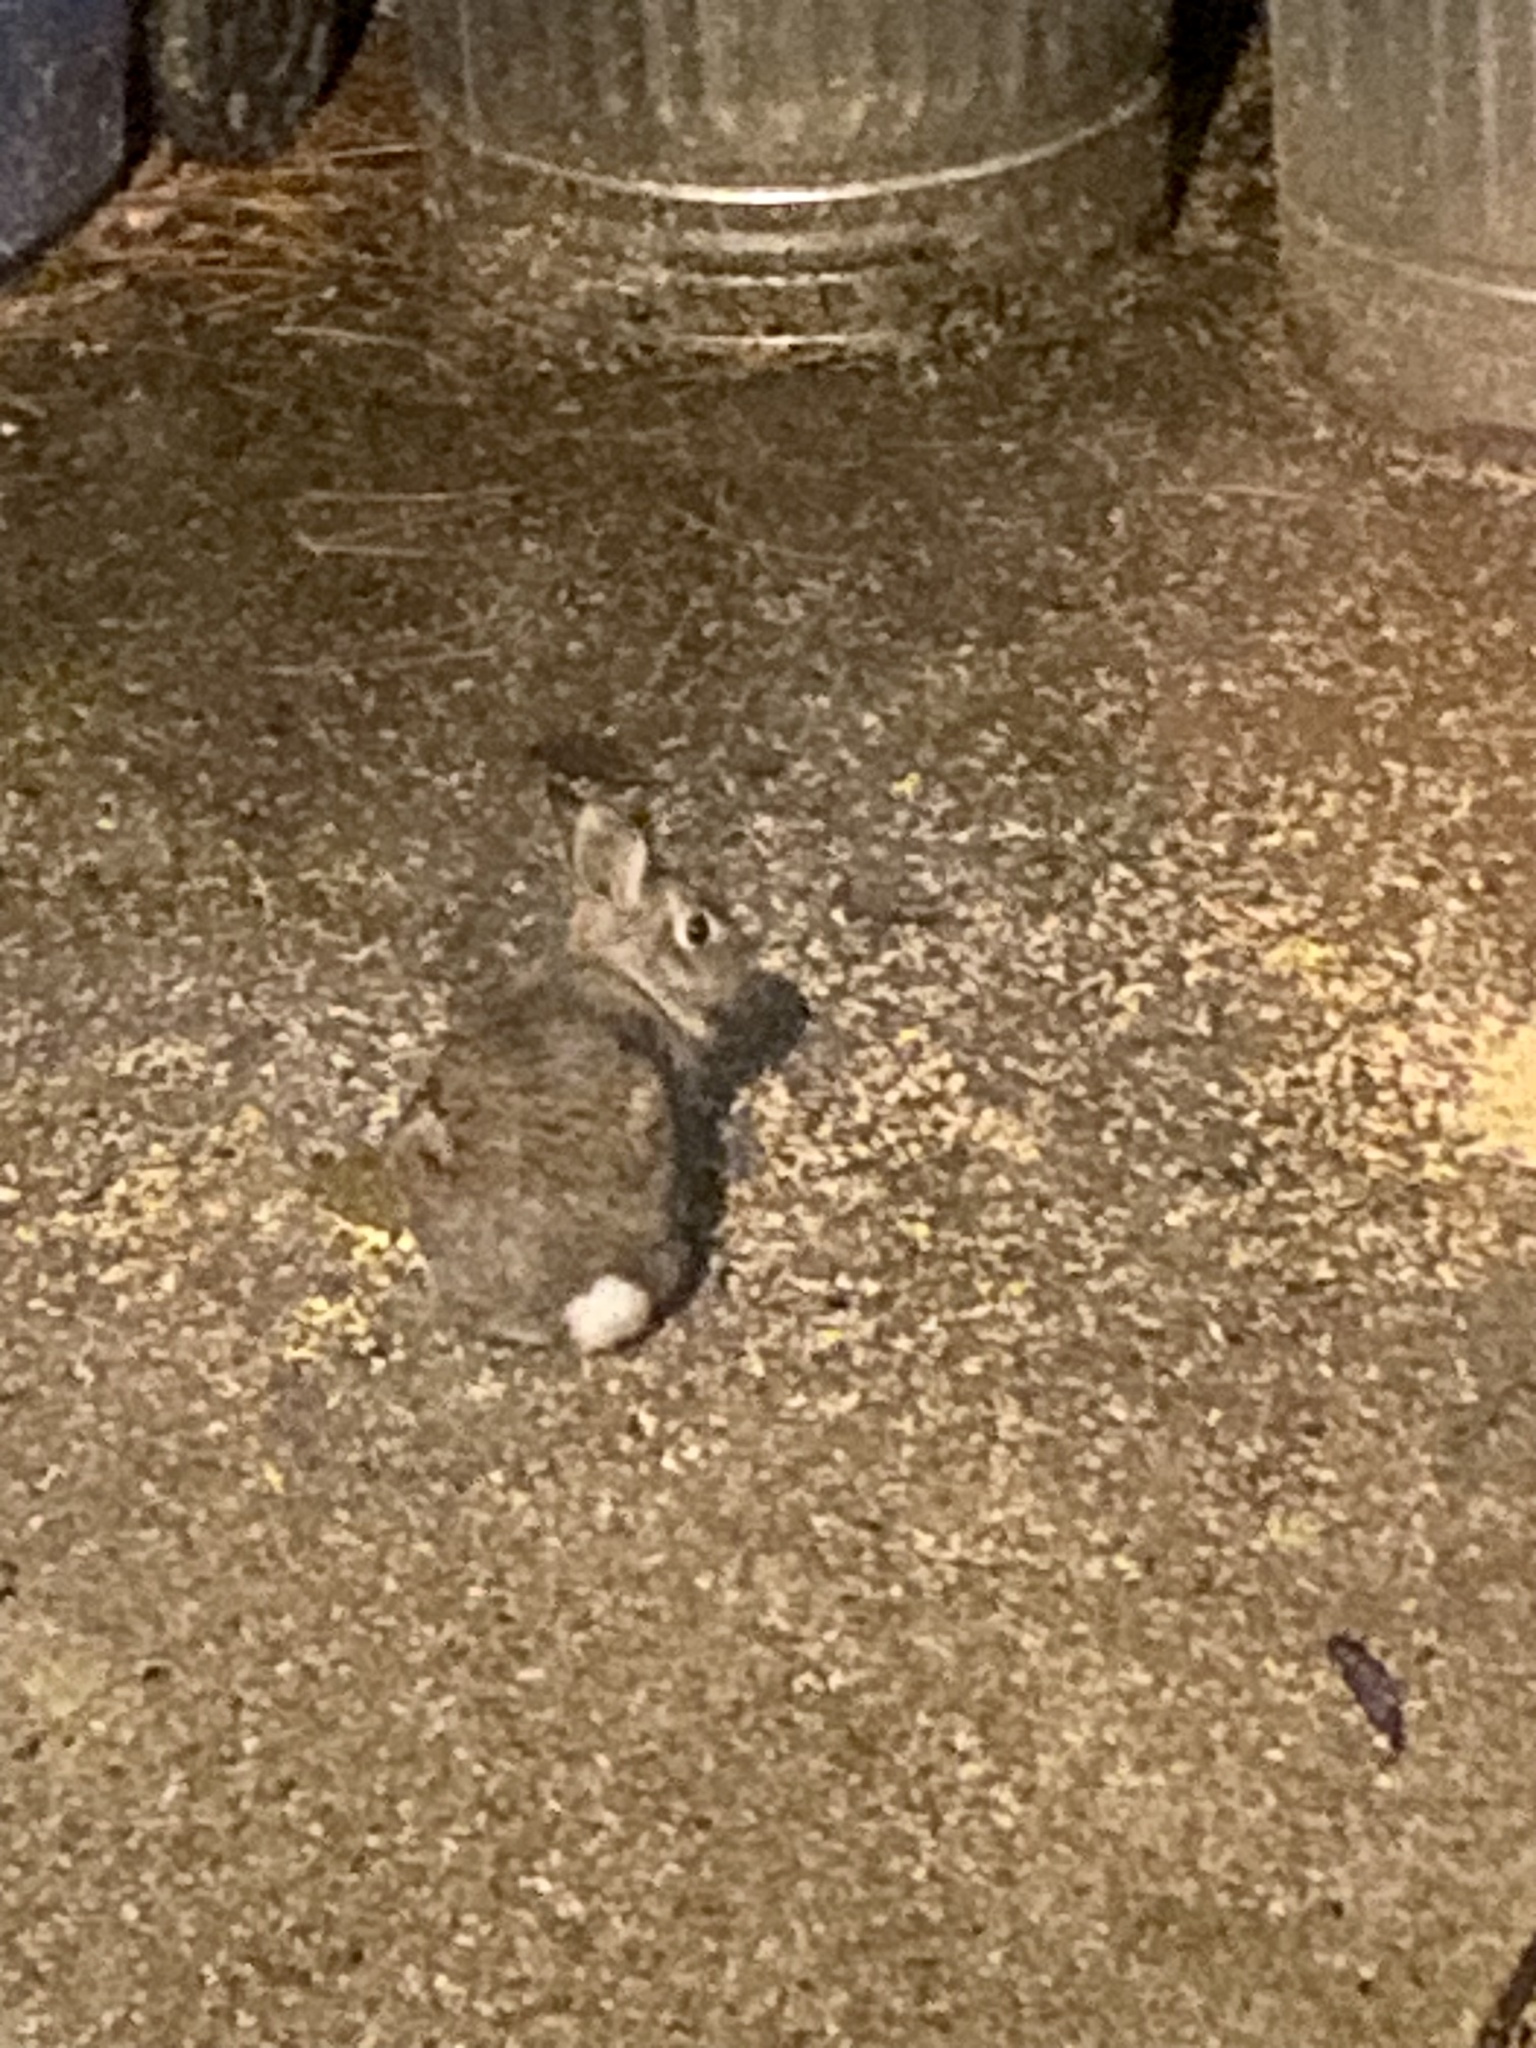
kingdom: Animalia
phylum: Chordata
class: Mammalia
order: Lagomorpha
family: Leporidae
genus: Sylvilagus
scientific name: Sylvilagus floridanus
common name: Eastern cottontail
